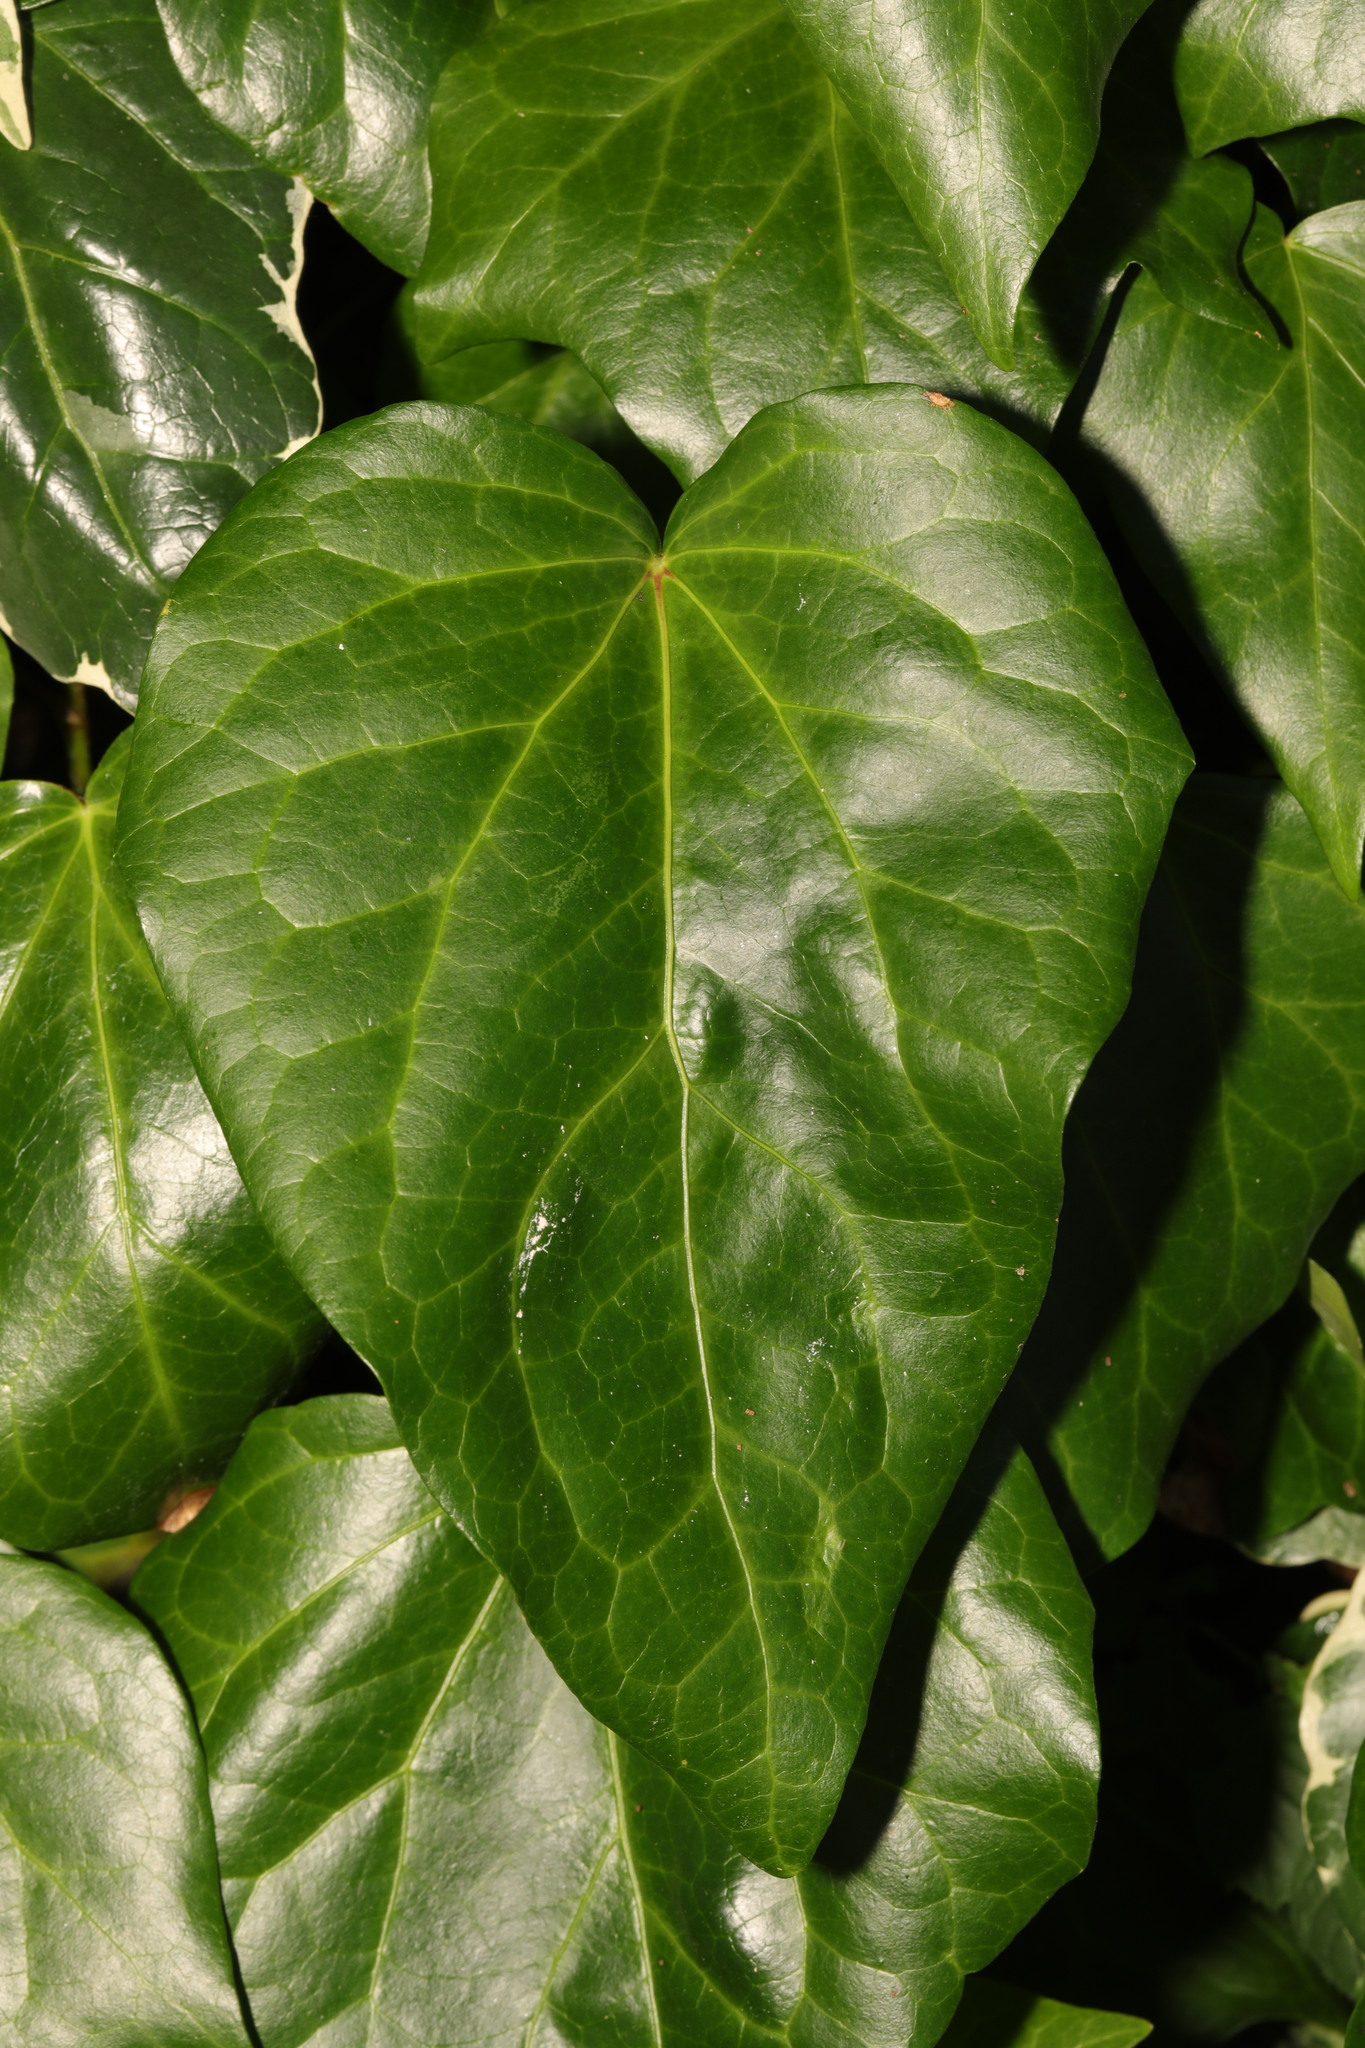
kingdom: Plantae
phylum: Tracheophyta
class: Magnoliopsida
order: Apiales
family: Araliaceae
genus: Hedera
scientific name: Hedera colchica
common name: Persian ivy
